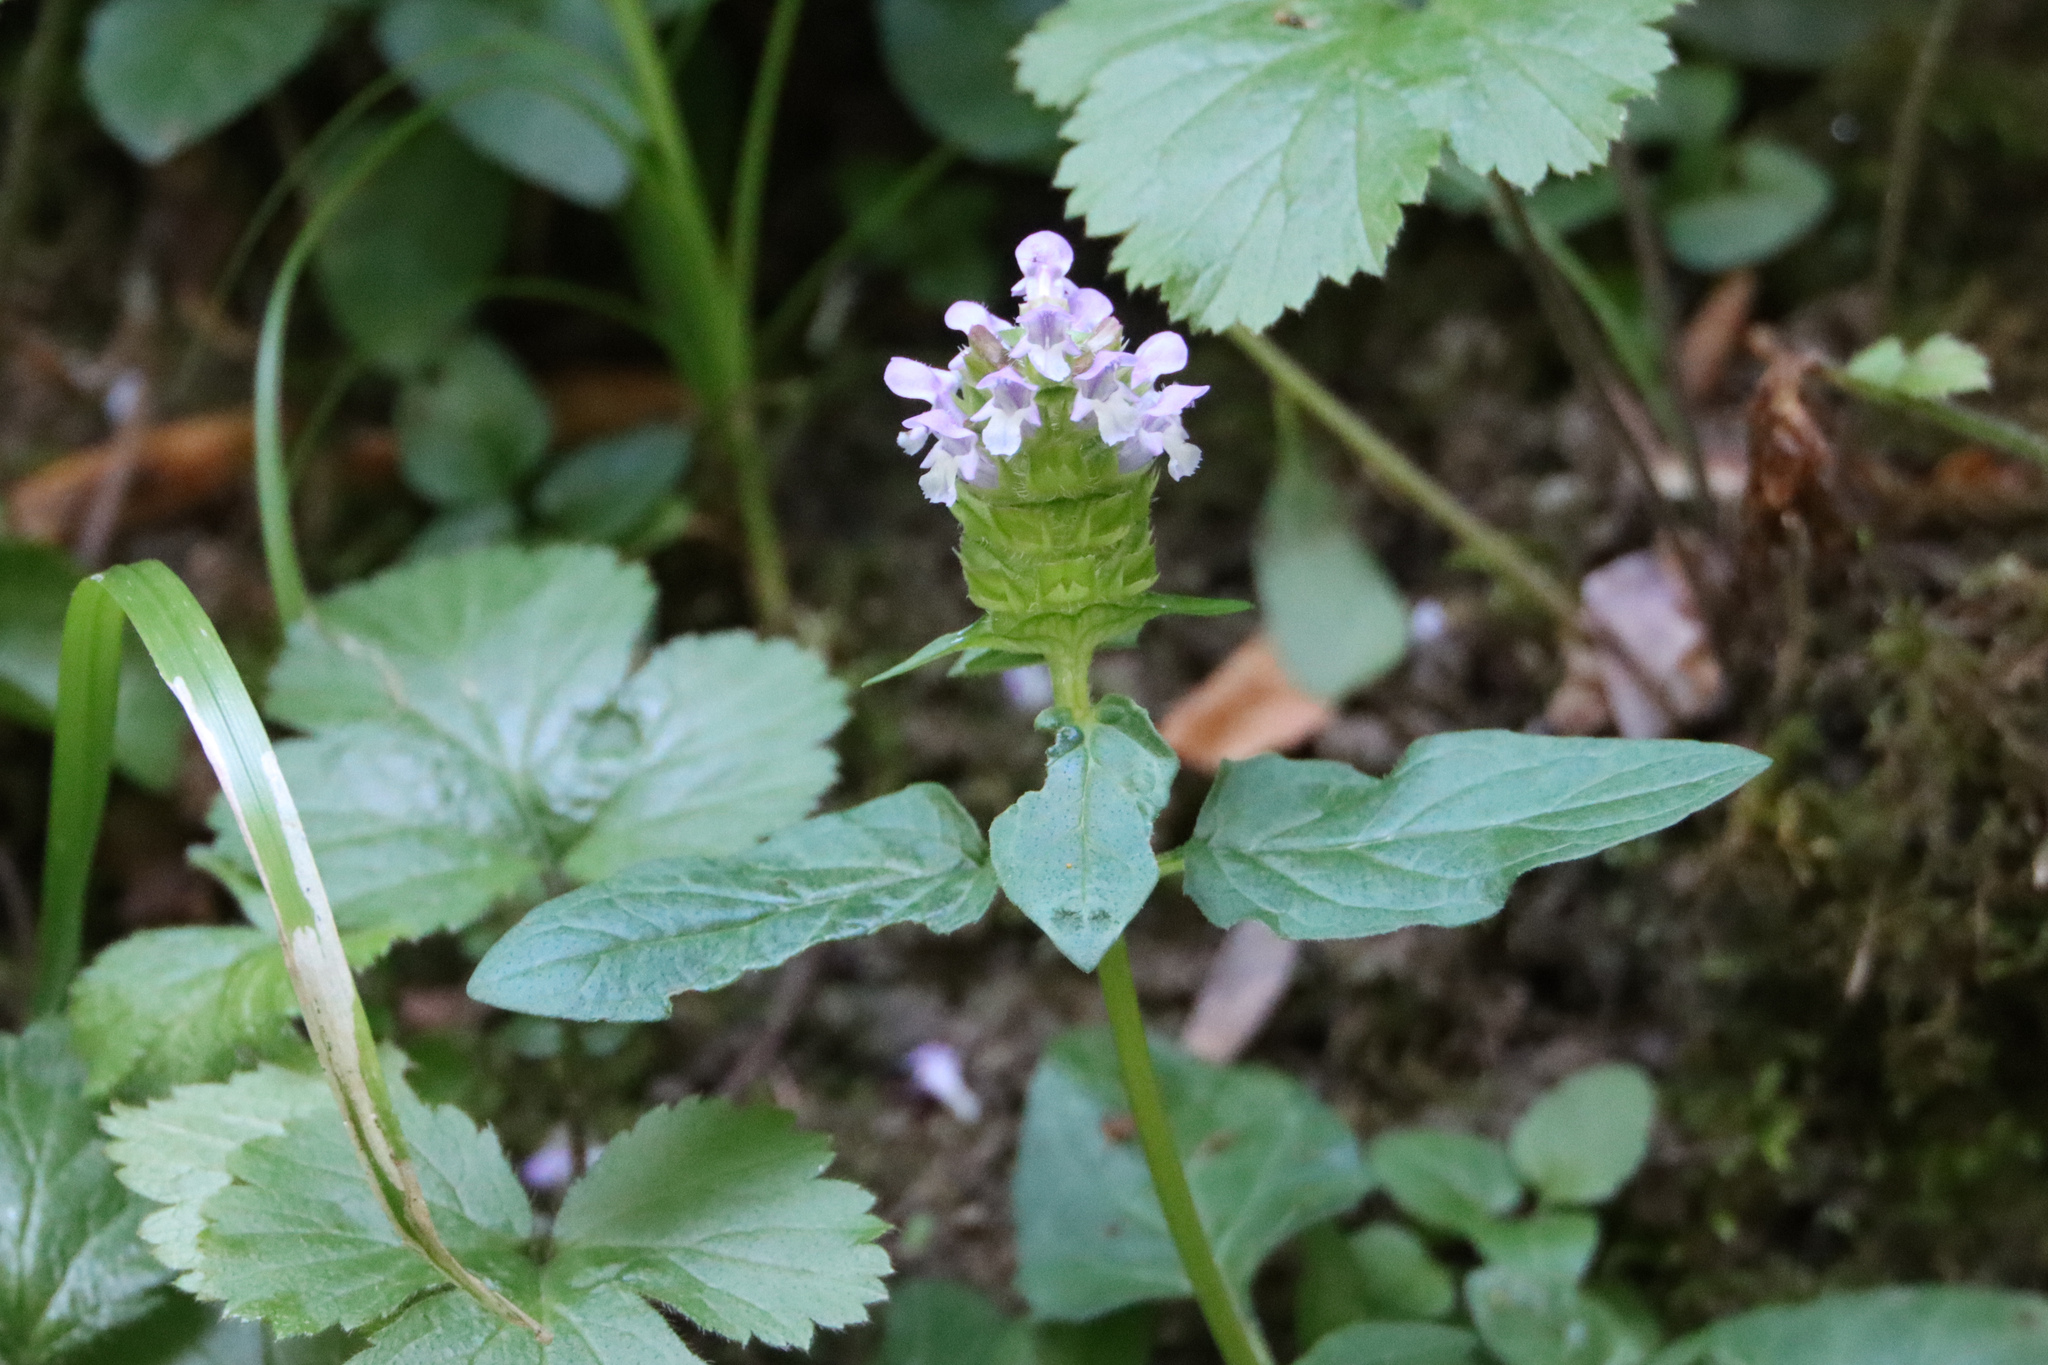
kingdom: Plantae
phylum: Tracheophyta
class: Magnoliopsida
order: Lamiales
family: Lamiaceae
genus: Prunella
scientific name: Prunella vulgaris
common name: Heal-all
